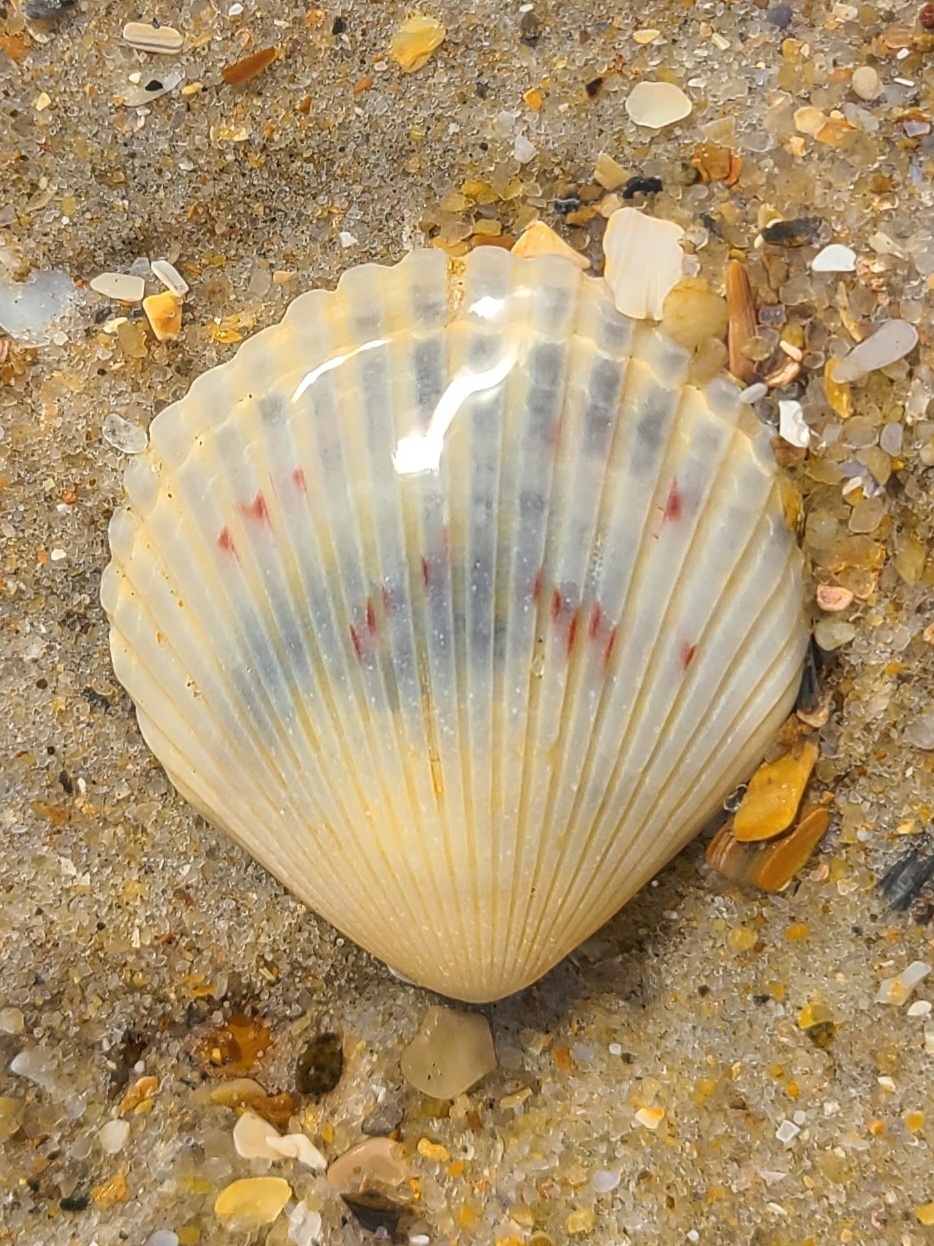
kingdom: Animalia
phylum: Mollusca
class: Bivalvia
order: Pectinida
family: Pectinidae
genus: Argopecten
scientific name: Argopecten irradians
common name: Atlantic bay scallop
